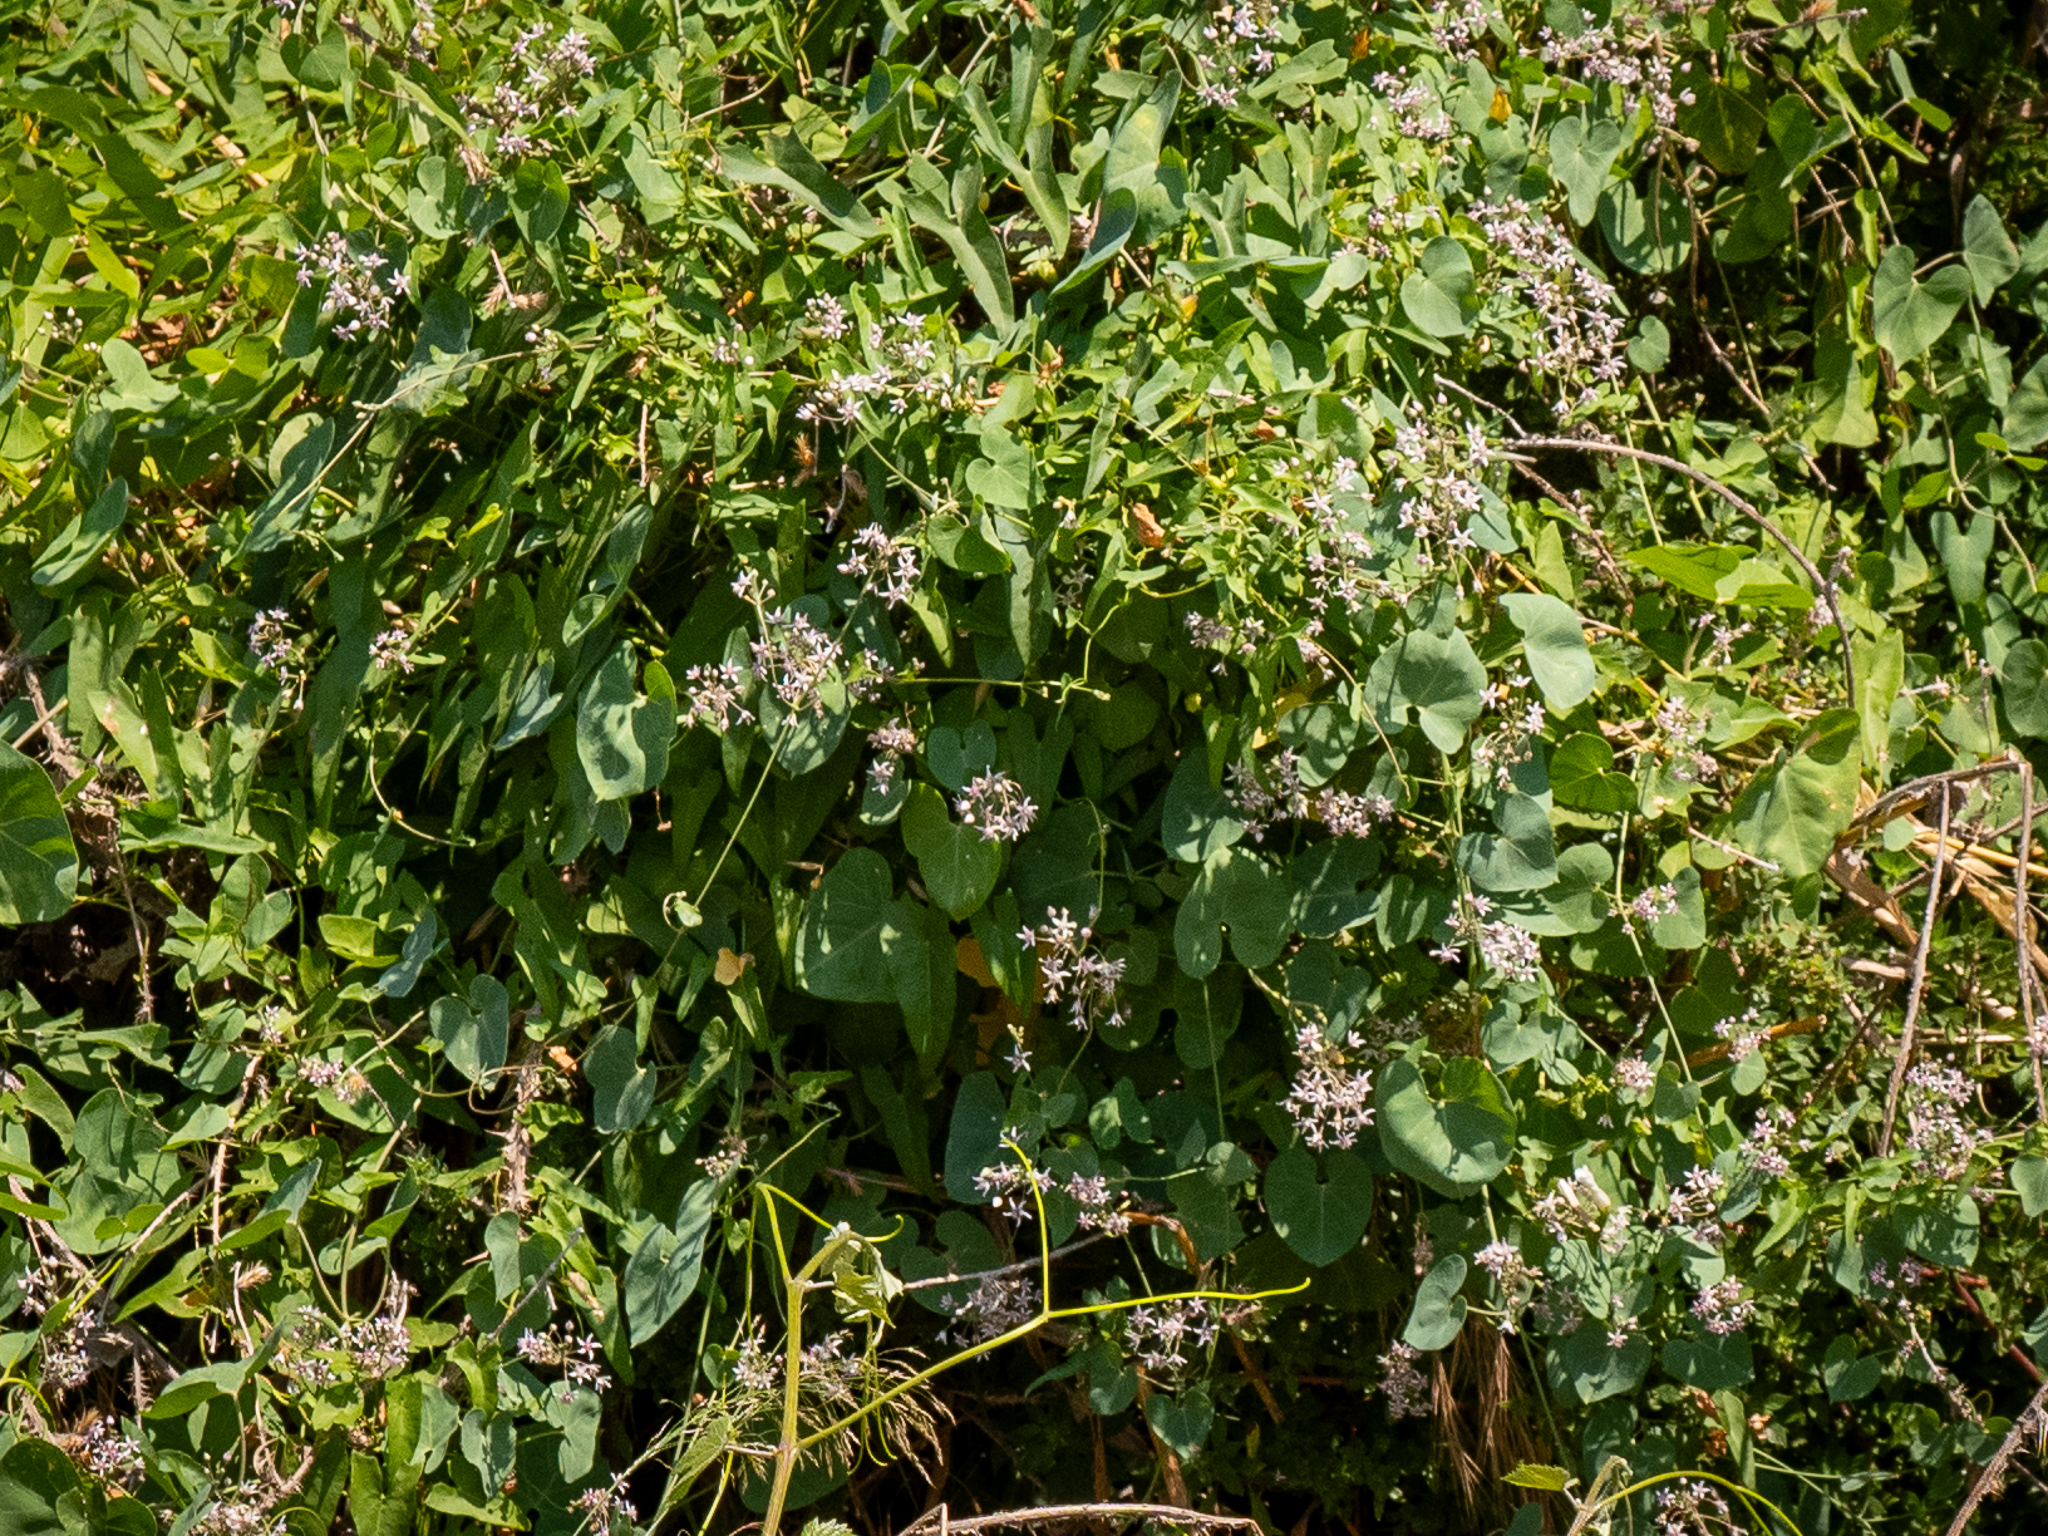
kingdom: Plantae
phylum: Tracheophyta
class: Magnoliopsida
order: Gentianales
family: Apocynaceae
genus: Cynanchum
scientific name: Cynanchum acutum
